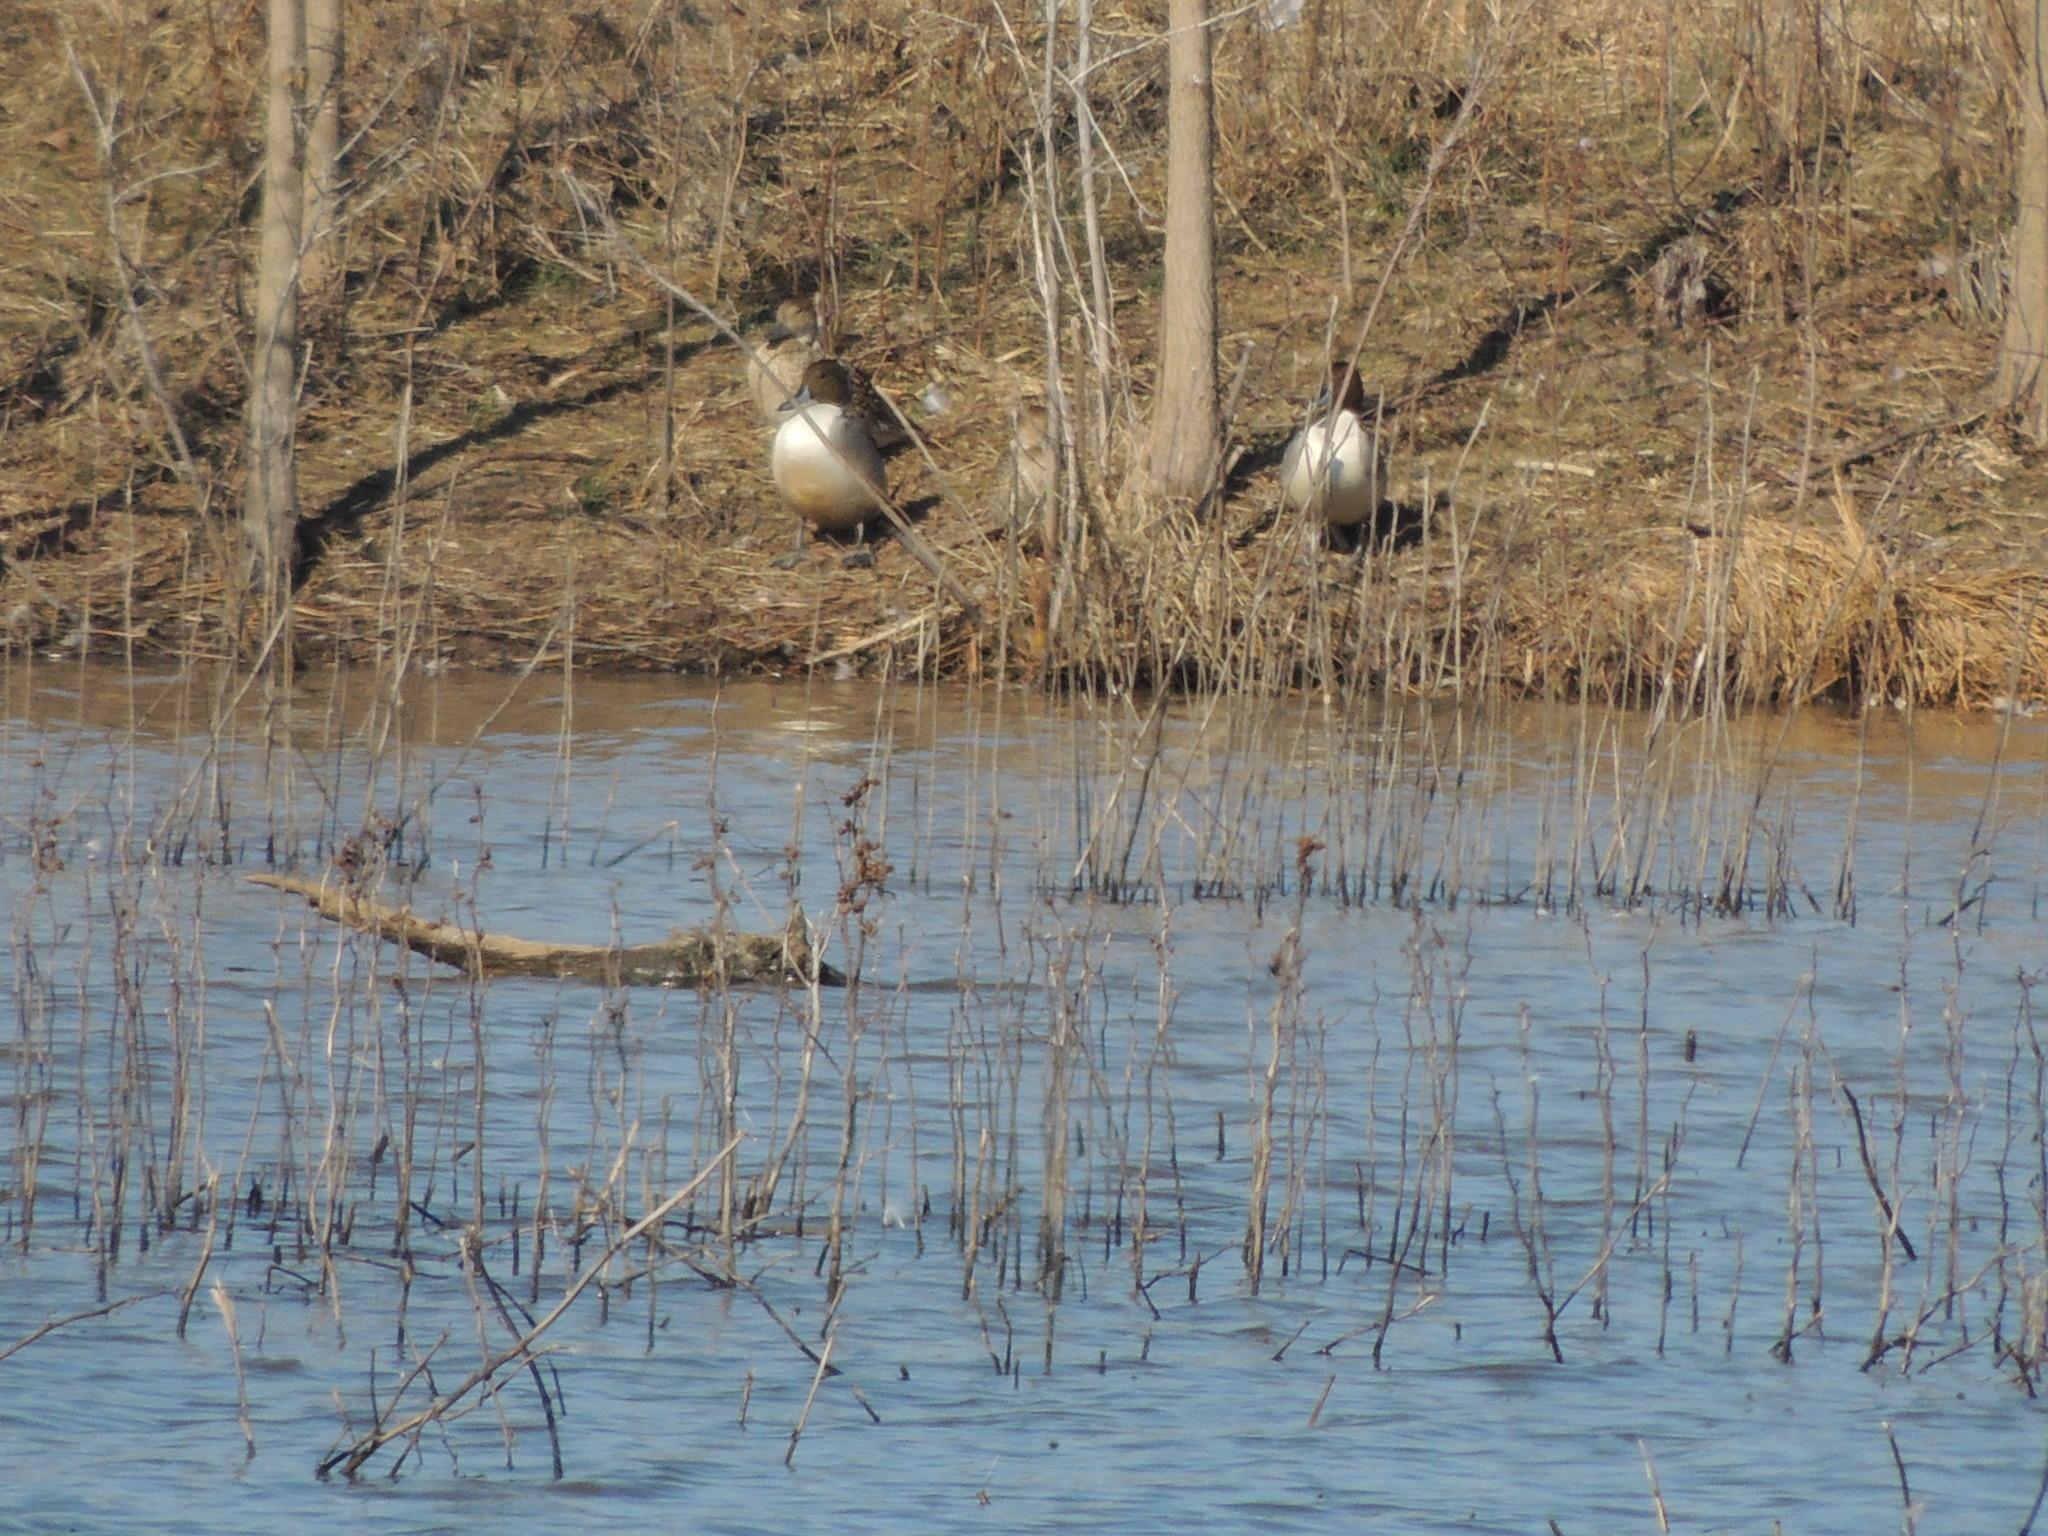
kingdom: Animalia
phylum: Chordata
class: Aves
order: Anseriformes
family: Anatidae
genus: Anas
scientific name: Anas acuta
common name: Northern pintail
